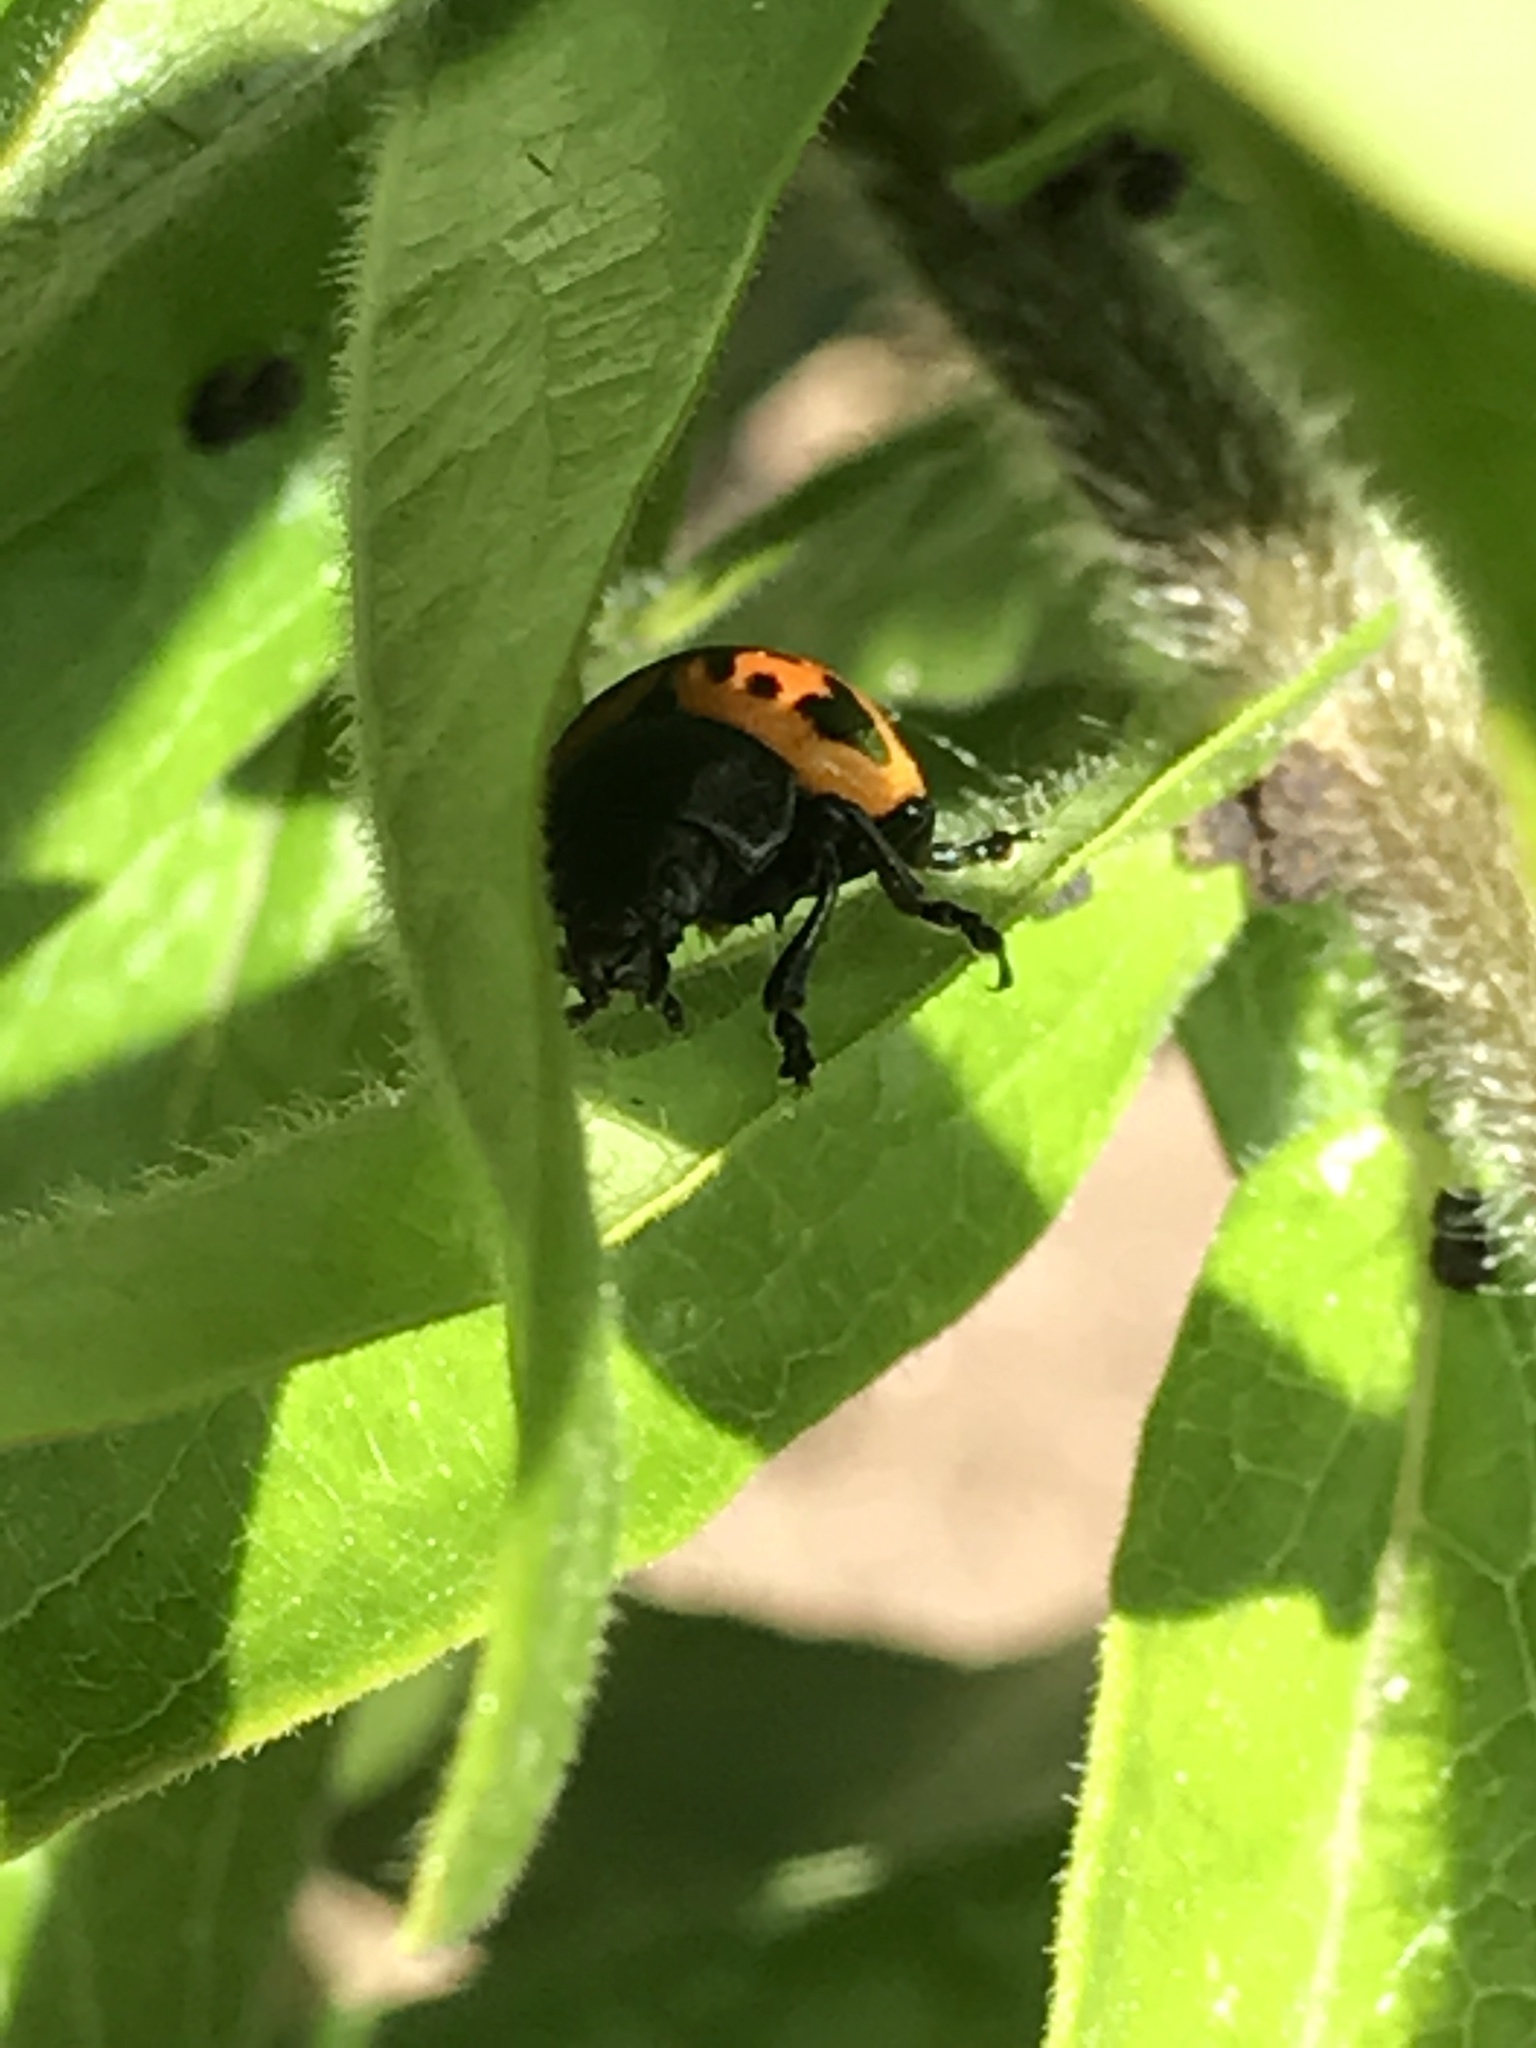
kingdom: Animalia
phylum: Arthropoda
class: Insecta
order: Coleoptera
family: Chrysomelidae
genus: Labidomera
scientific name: Labidomera clivicollis
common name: Swamp milkweed leaf beetle
